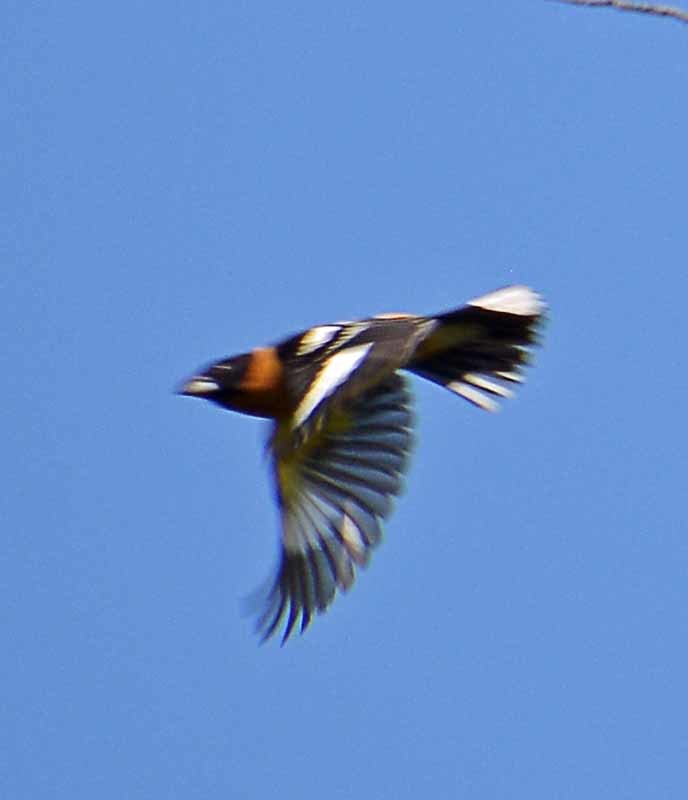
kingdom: Animalia
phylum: Chordata
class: Aves
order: Passeriformes
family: Cardinalidae
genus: Pheucticus
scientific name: Pheucticus melanocephalus
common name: Black-headed grosbeak
